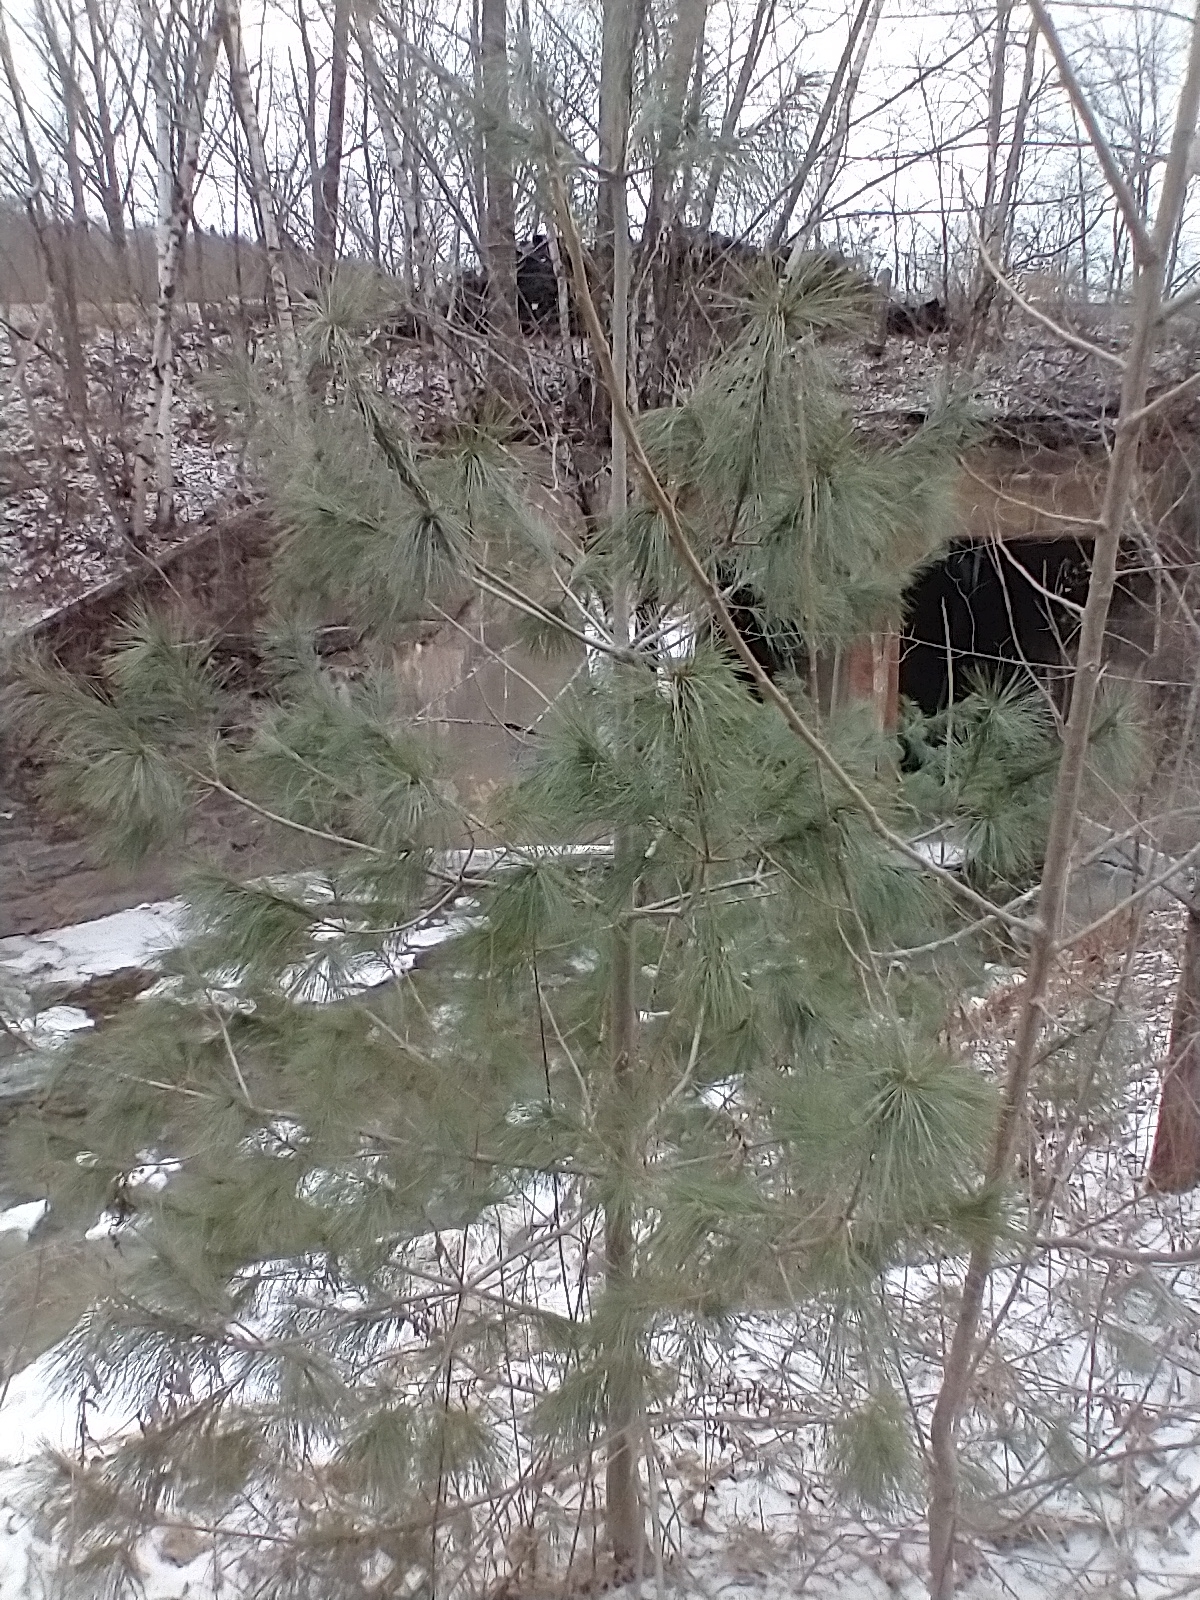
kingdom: Plantae
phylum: Tracheophyta
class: Pinopsida
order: Pinales
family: Pinaceae
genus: Pinus
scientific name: Pinus strobus
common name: Weymouth pine
